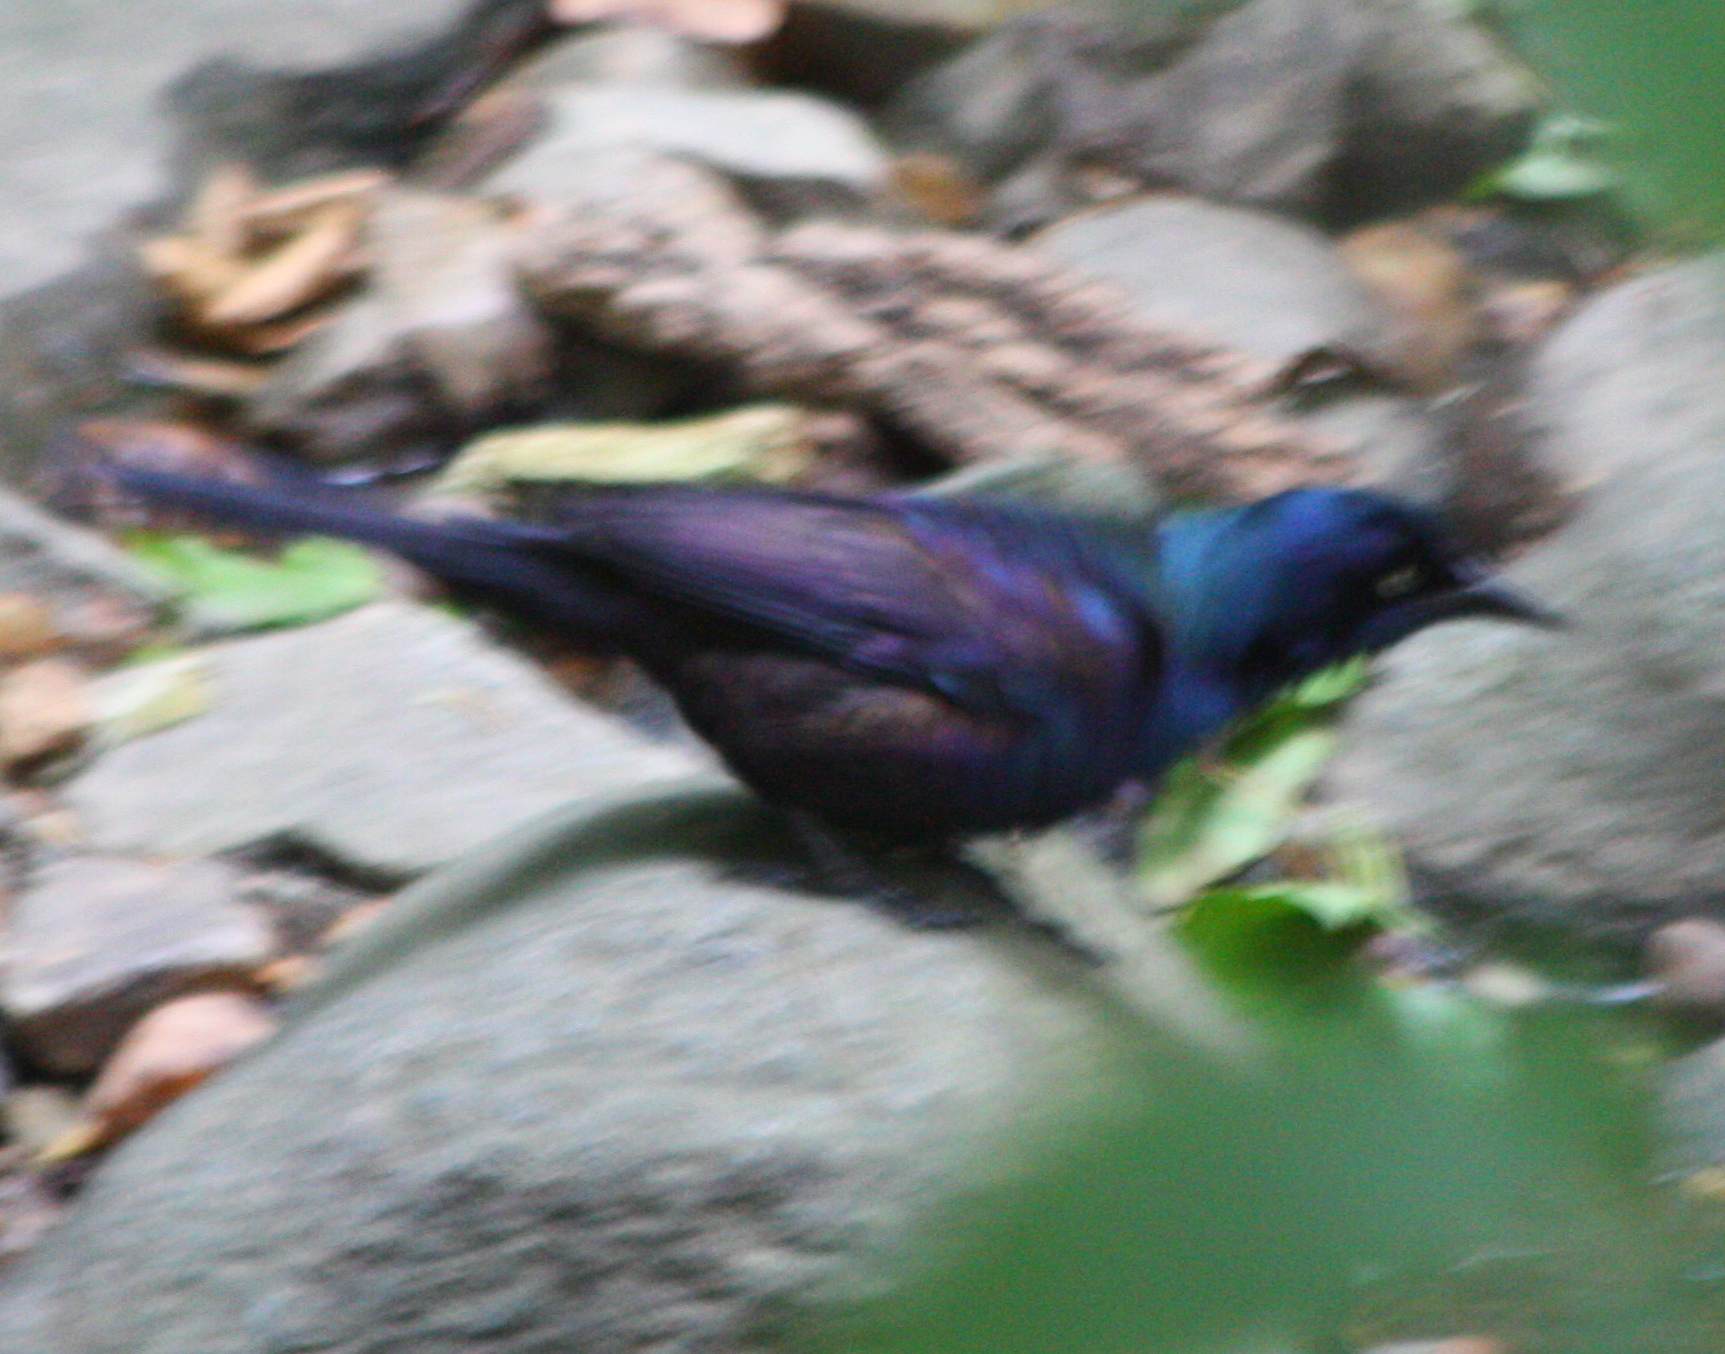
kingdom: Animalia
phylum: Chordata
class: Aves
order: Passeriformes
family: Icteridae
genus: Quiscalus
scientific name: Quiscalus quiscula
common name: Common grackle
